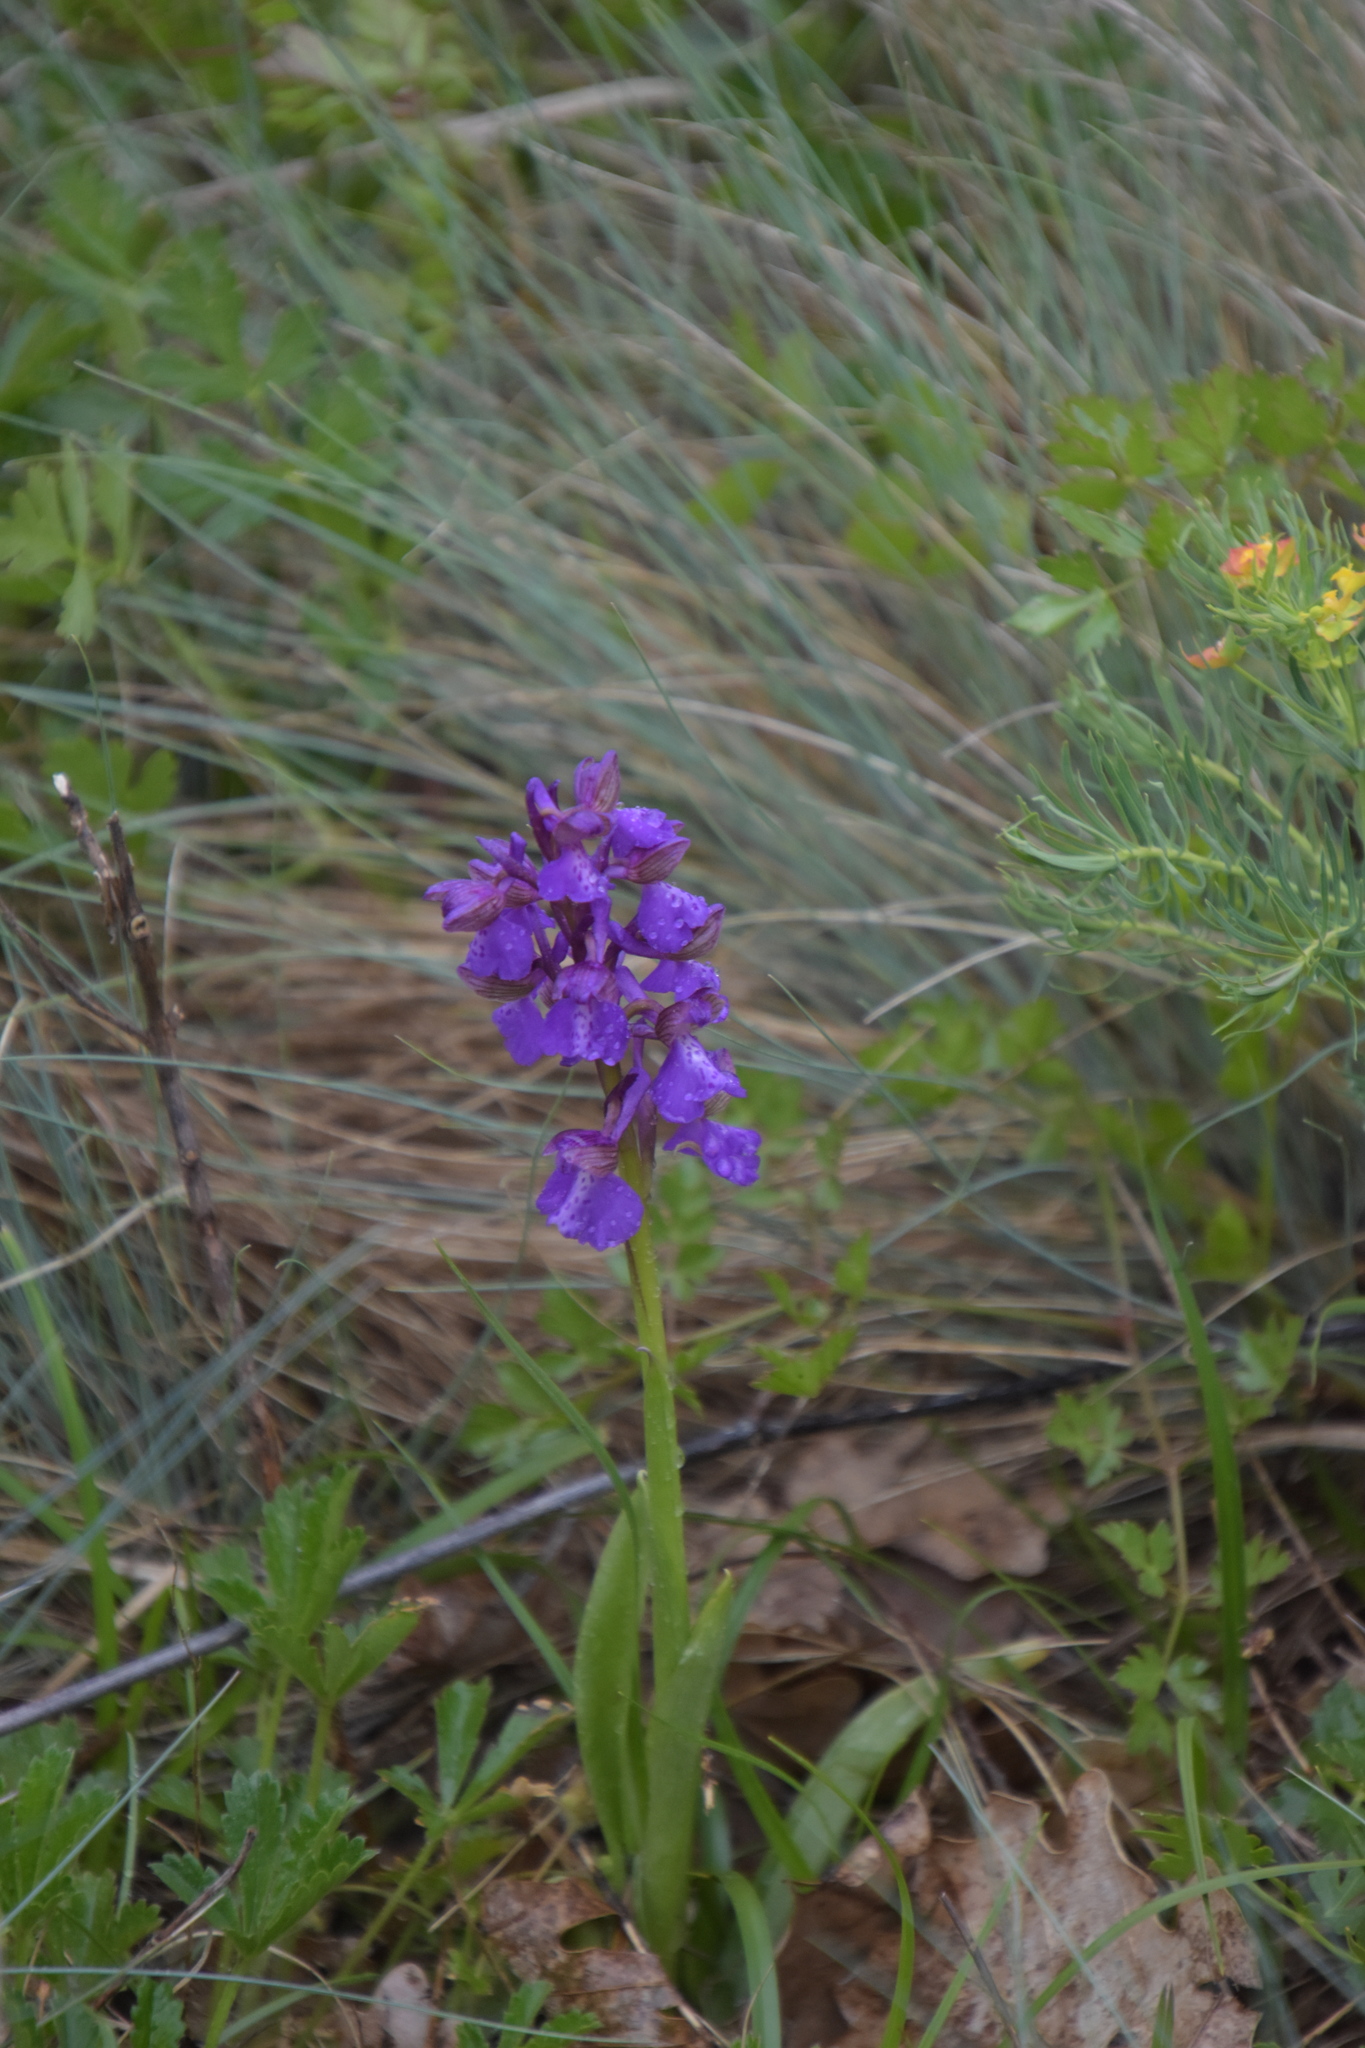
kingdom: Plantae
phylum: Tracheophyta
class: Liliopsida
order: Asparagales
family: Orchidaceae
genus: Anacamptis
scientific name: Anacamptis morio
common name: Green-winged orchid
